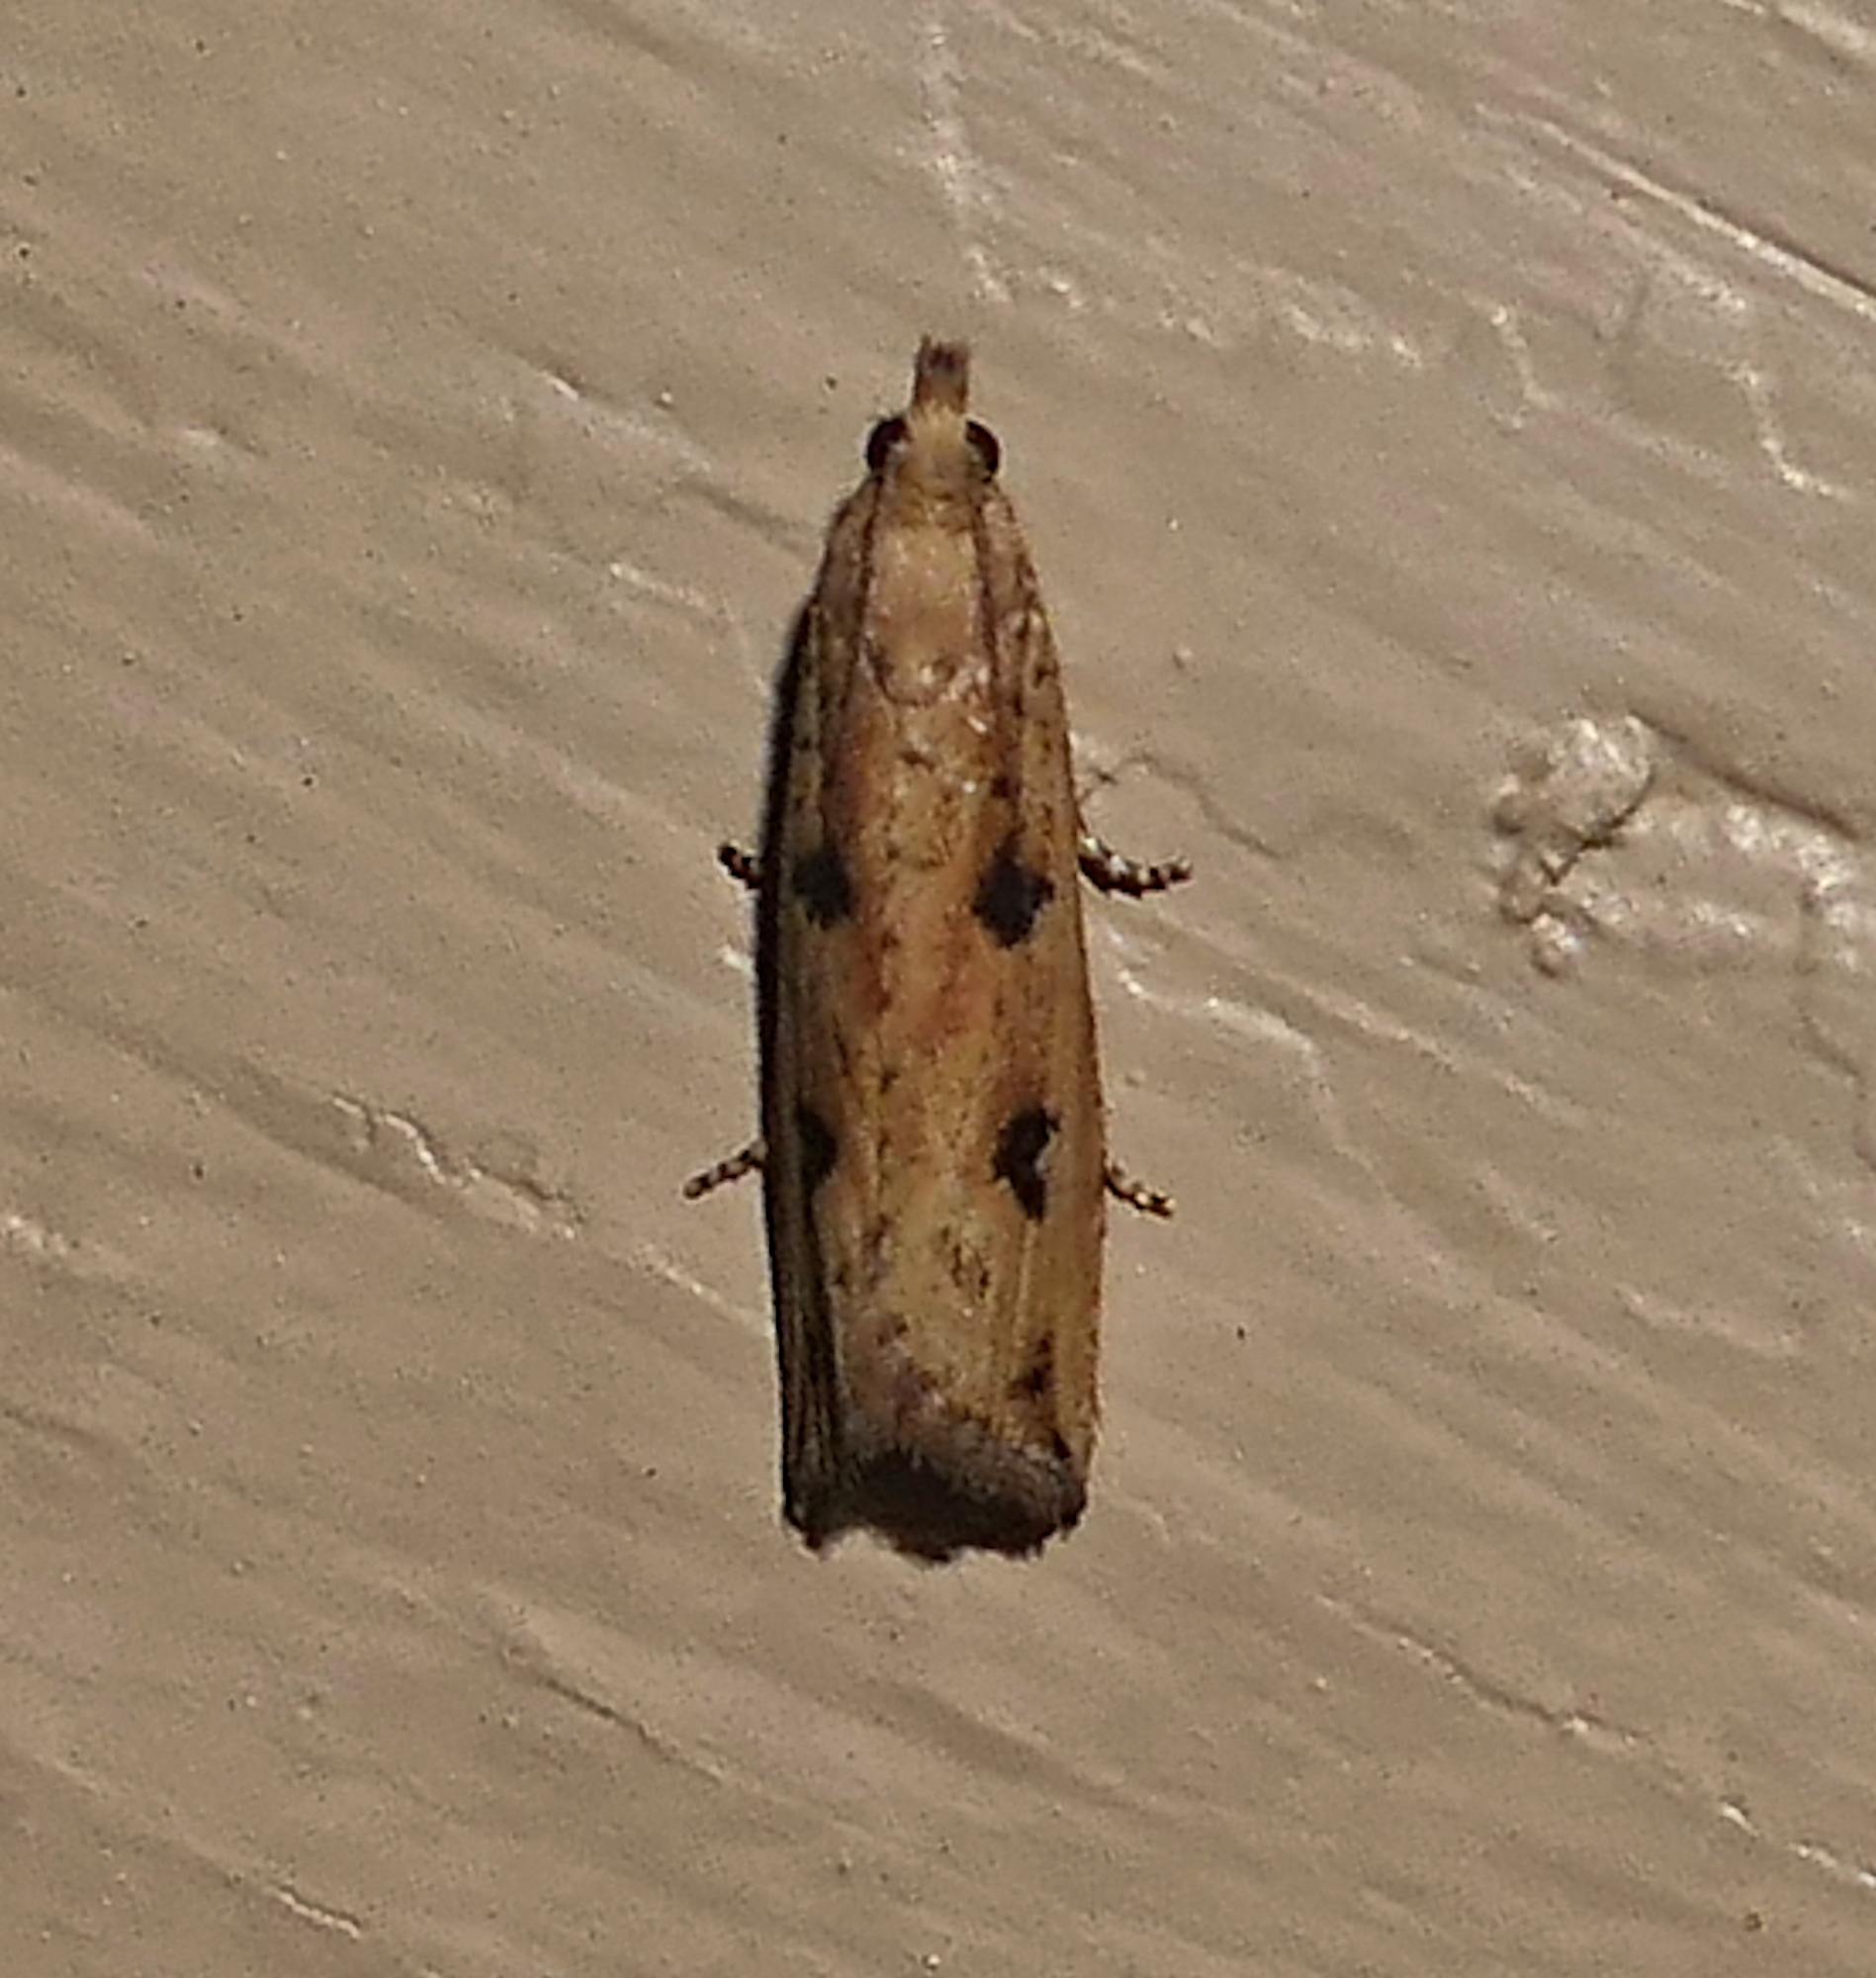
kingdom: Animalia
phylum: Arthropoda
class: Insecta
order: Lepidoptera
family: Tortricidae
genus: Bactra
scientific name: Bactra verutana
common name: Javelin moth
